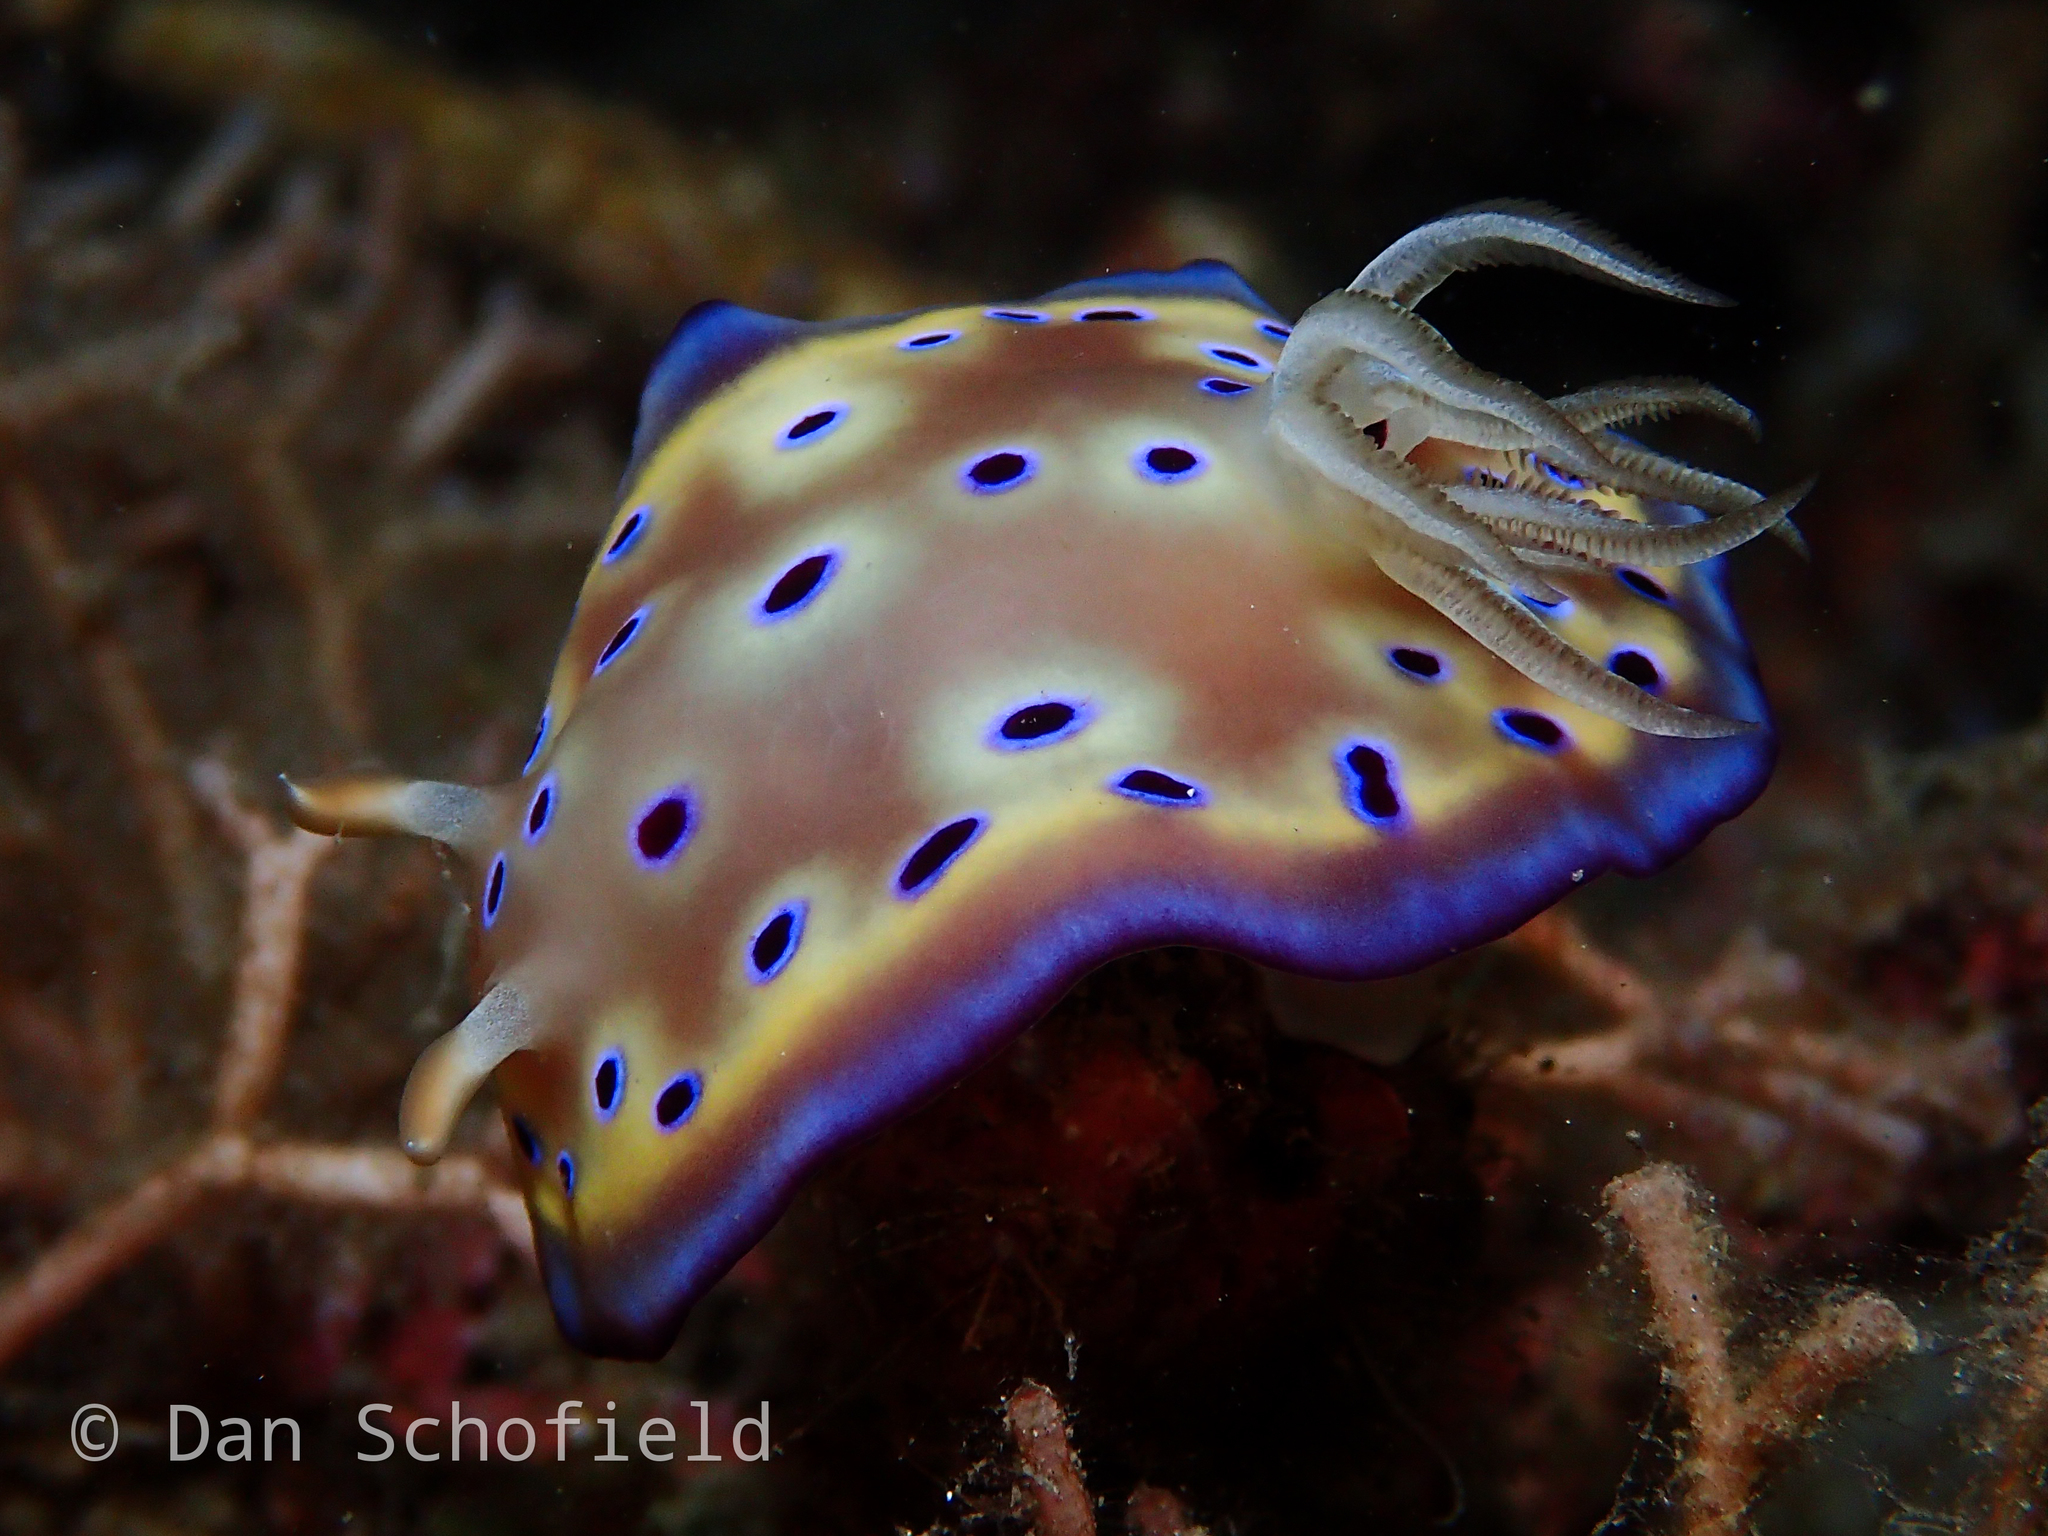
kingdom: Animalia
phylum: Mollusca
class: Gastropoda
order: Nudibranchia
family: Chromodorididae
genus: Goniobranchus
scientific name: Goniobranchus kuniei
